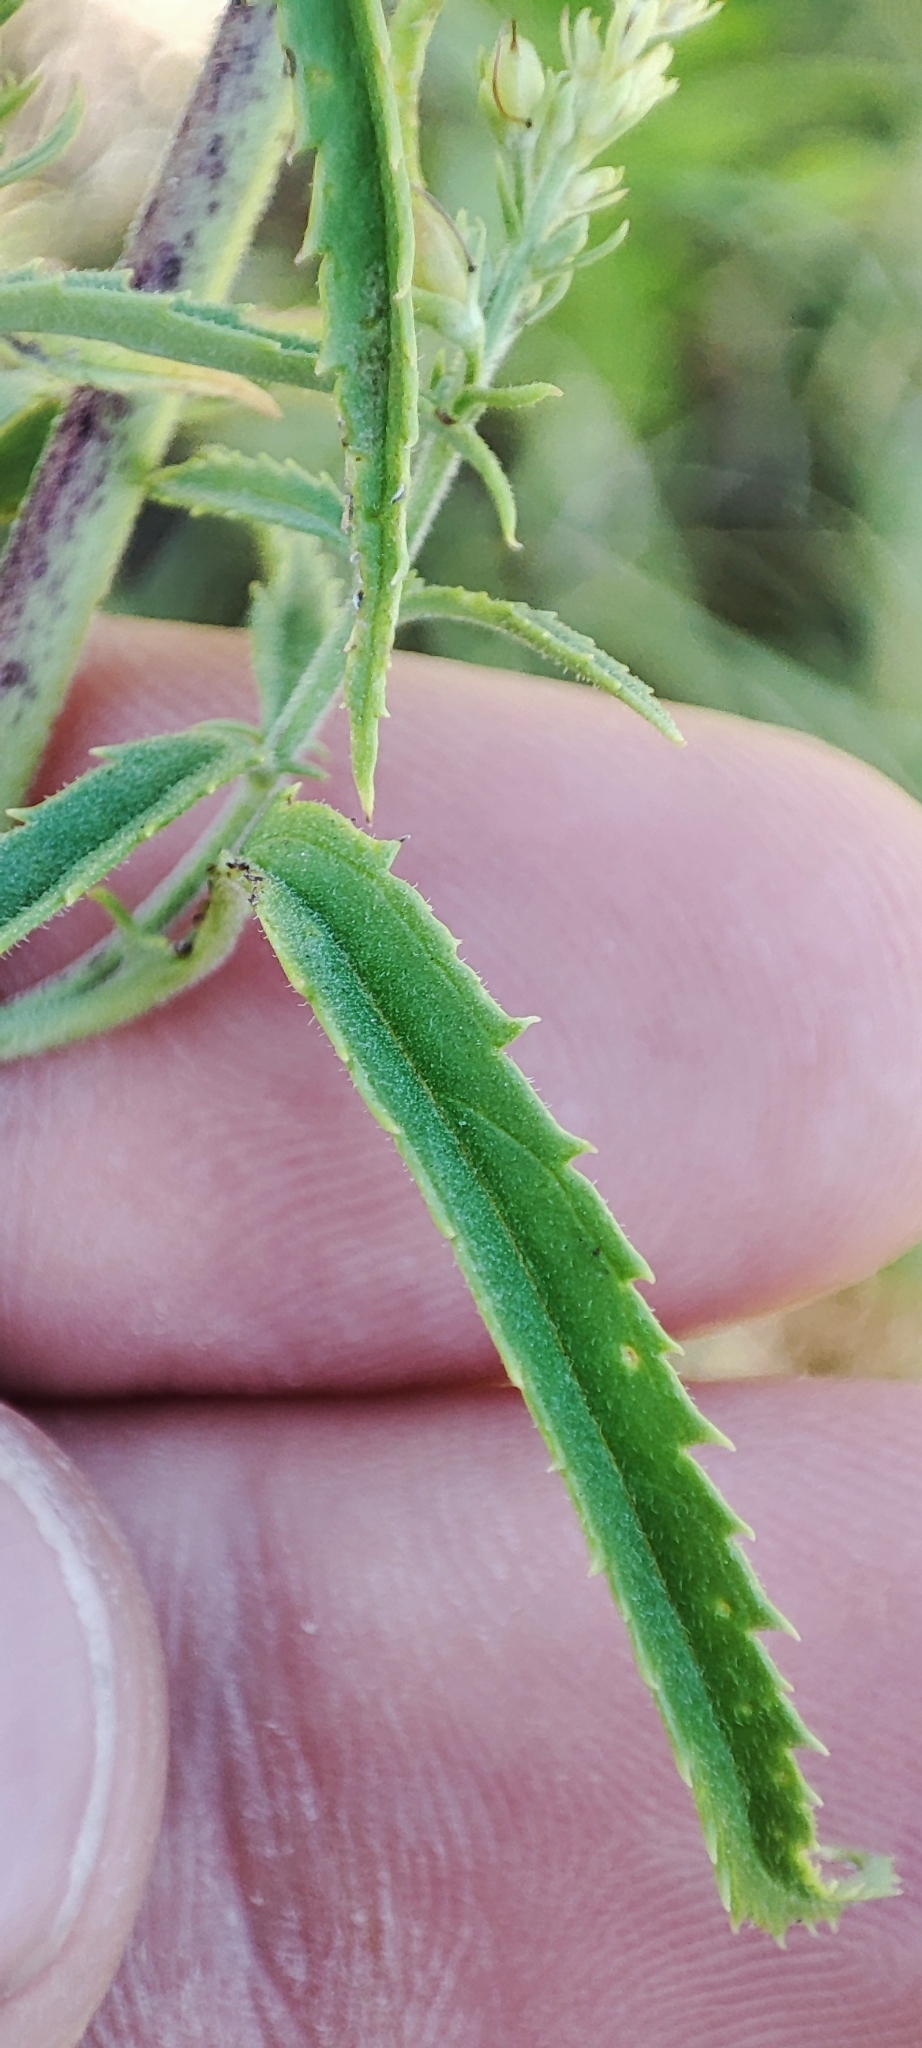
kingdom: Plantae
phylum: Tracheophyta
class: Magnoliopsida
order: Lamiales
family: Plantaginaceae
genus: Veronica
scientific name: Veronica spuria
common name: Bastard speedwell
